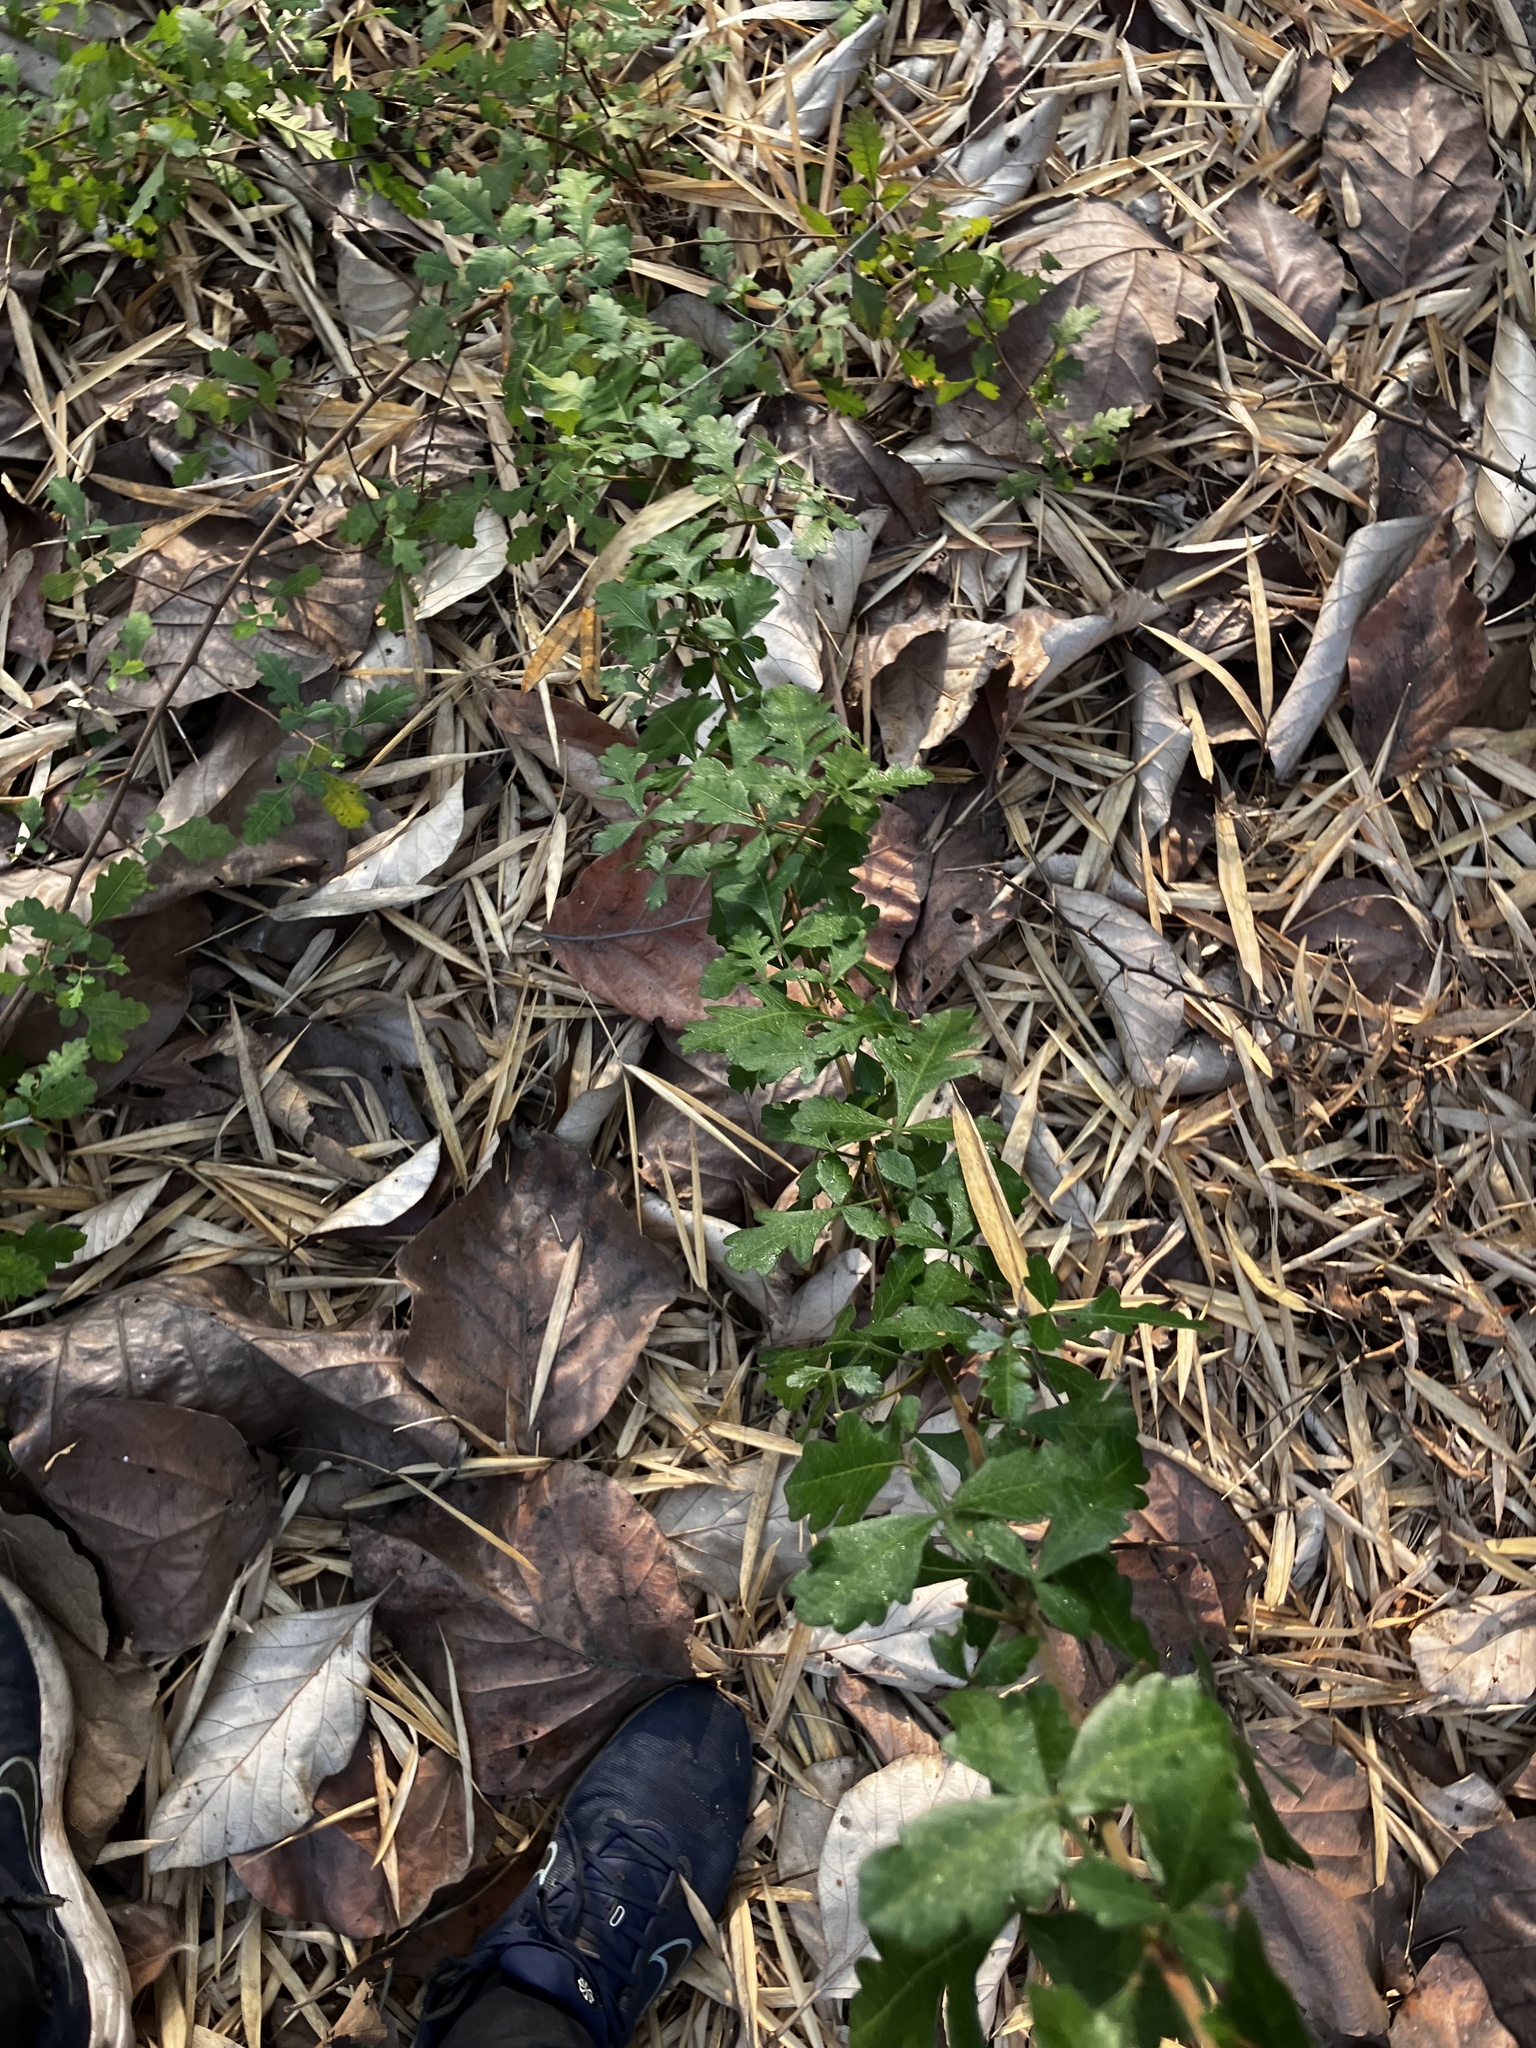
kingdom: Plantae
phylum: Tracheophyta
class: Magnoliopsida
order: Sapindales
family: Anacardiaceae
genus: Searsia
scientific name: Searsia mysorensis
